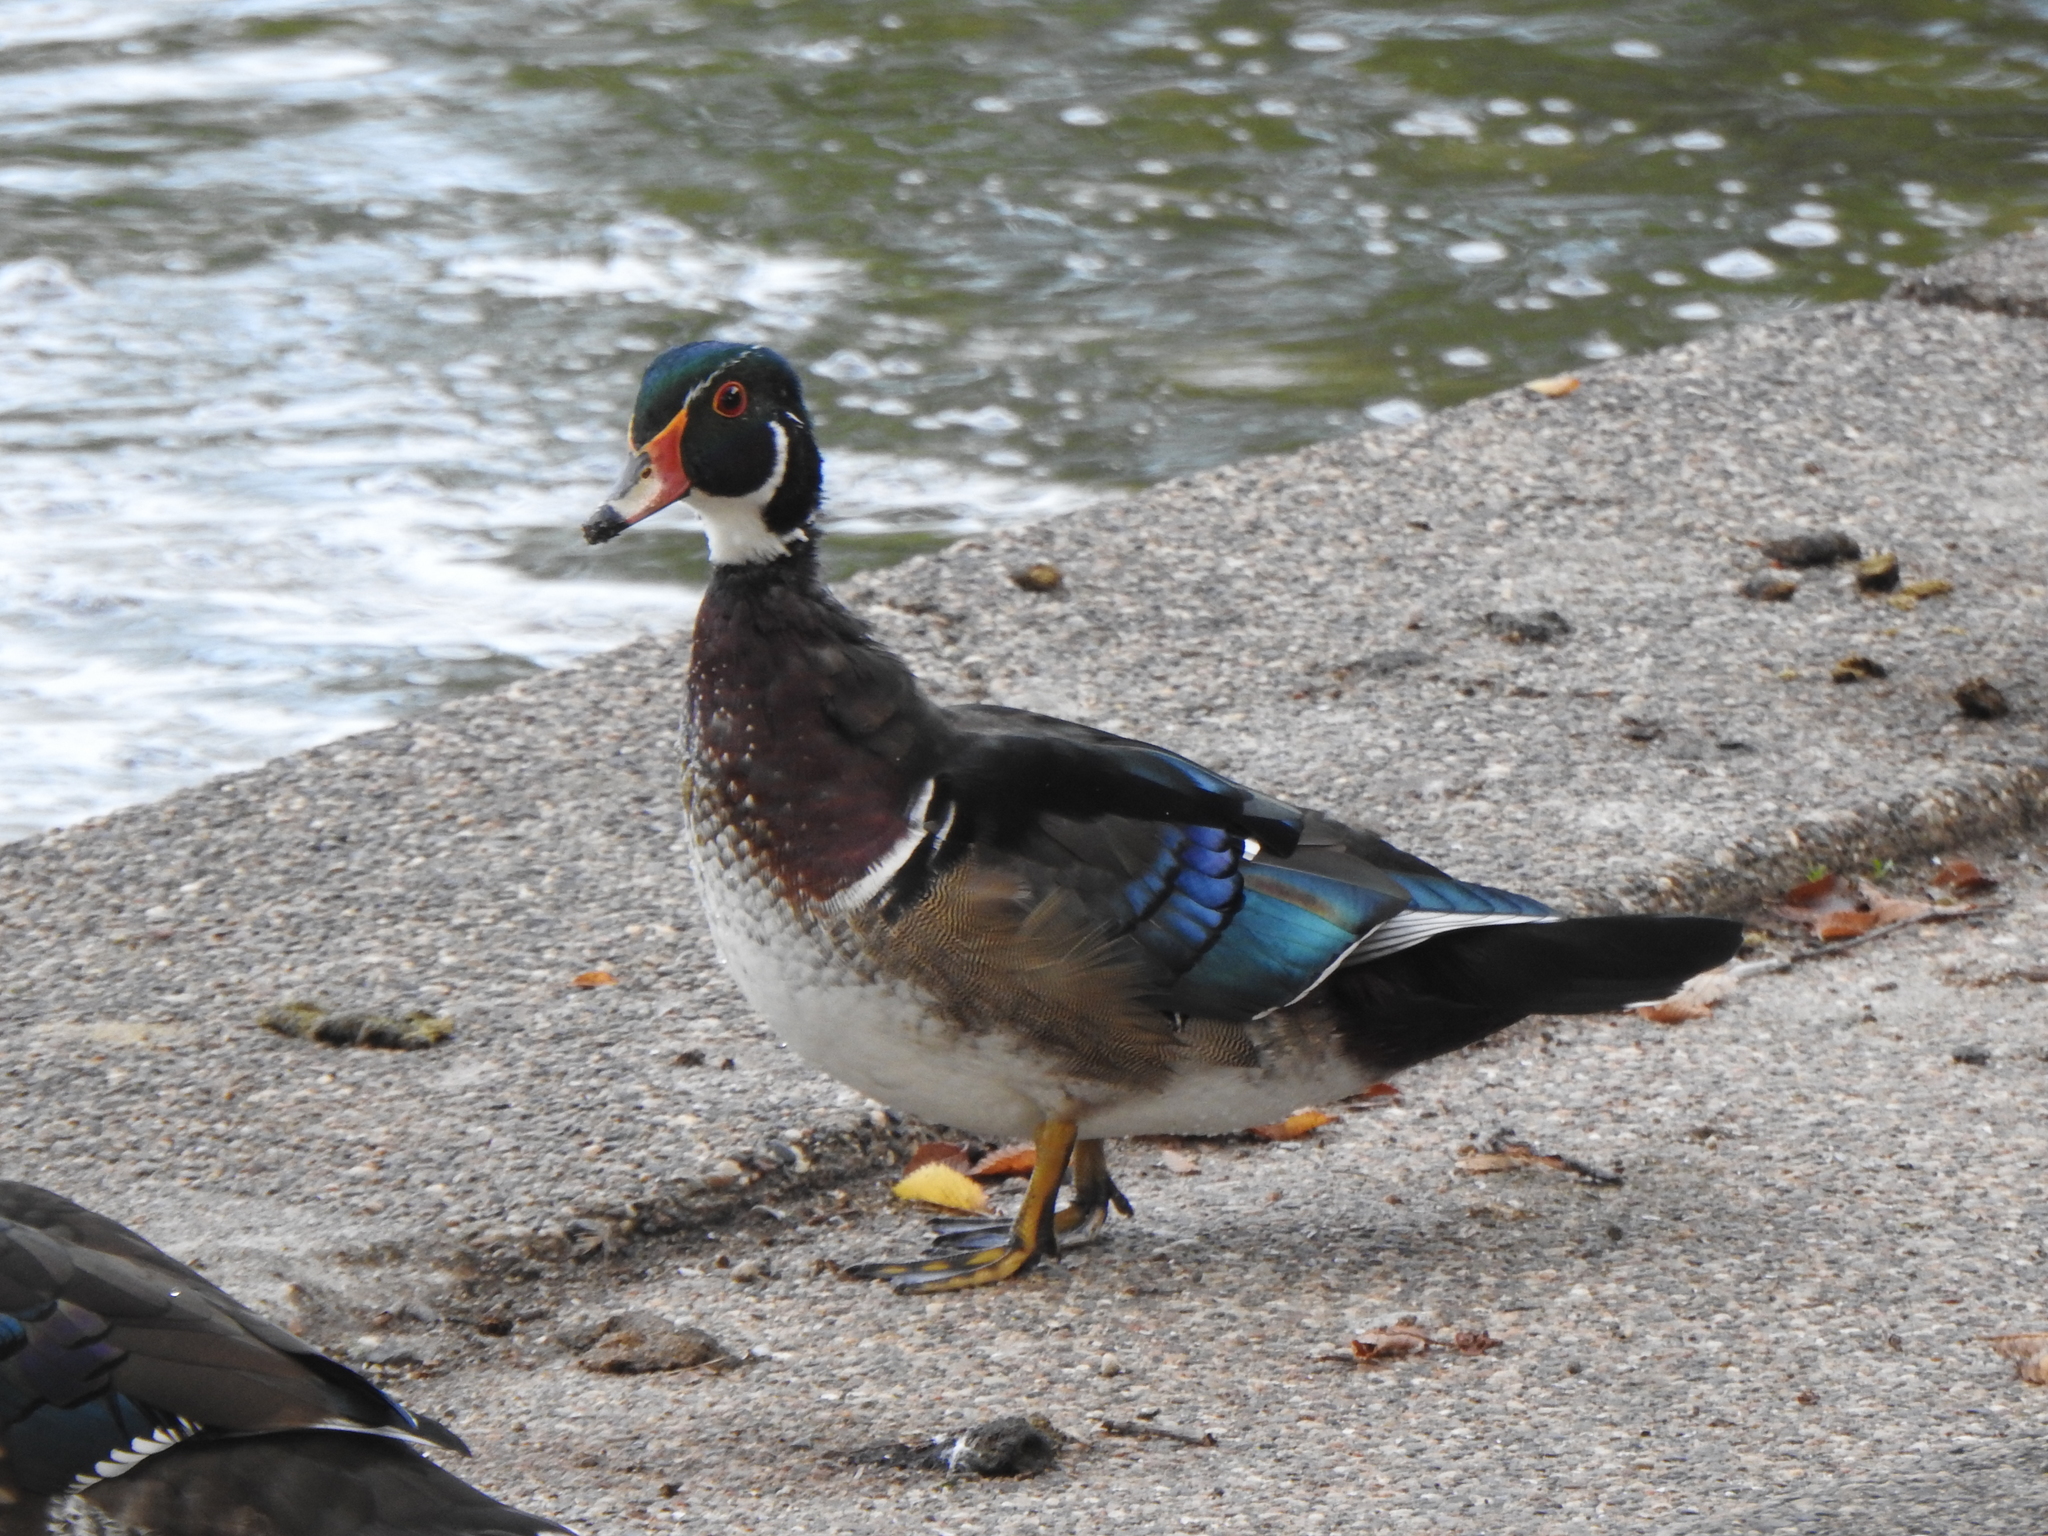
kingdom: Animalia
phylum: Chordata
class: Aves
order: Anseriformes
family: Anatidae
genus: Aix
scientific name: Aix sponsa
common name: Wood duck
